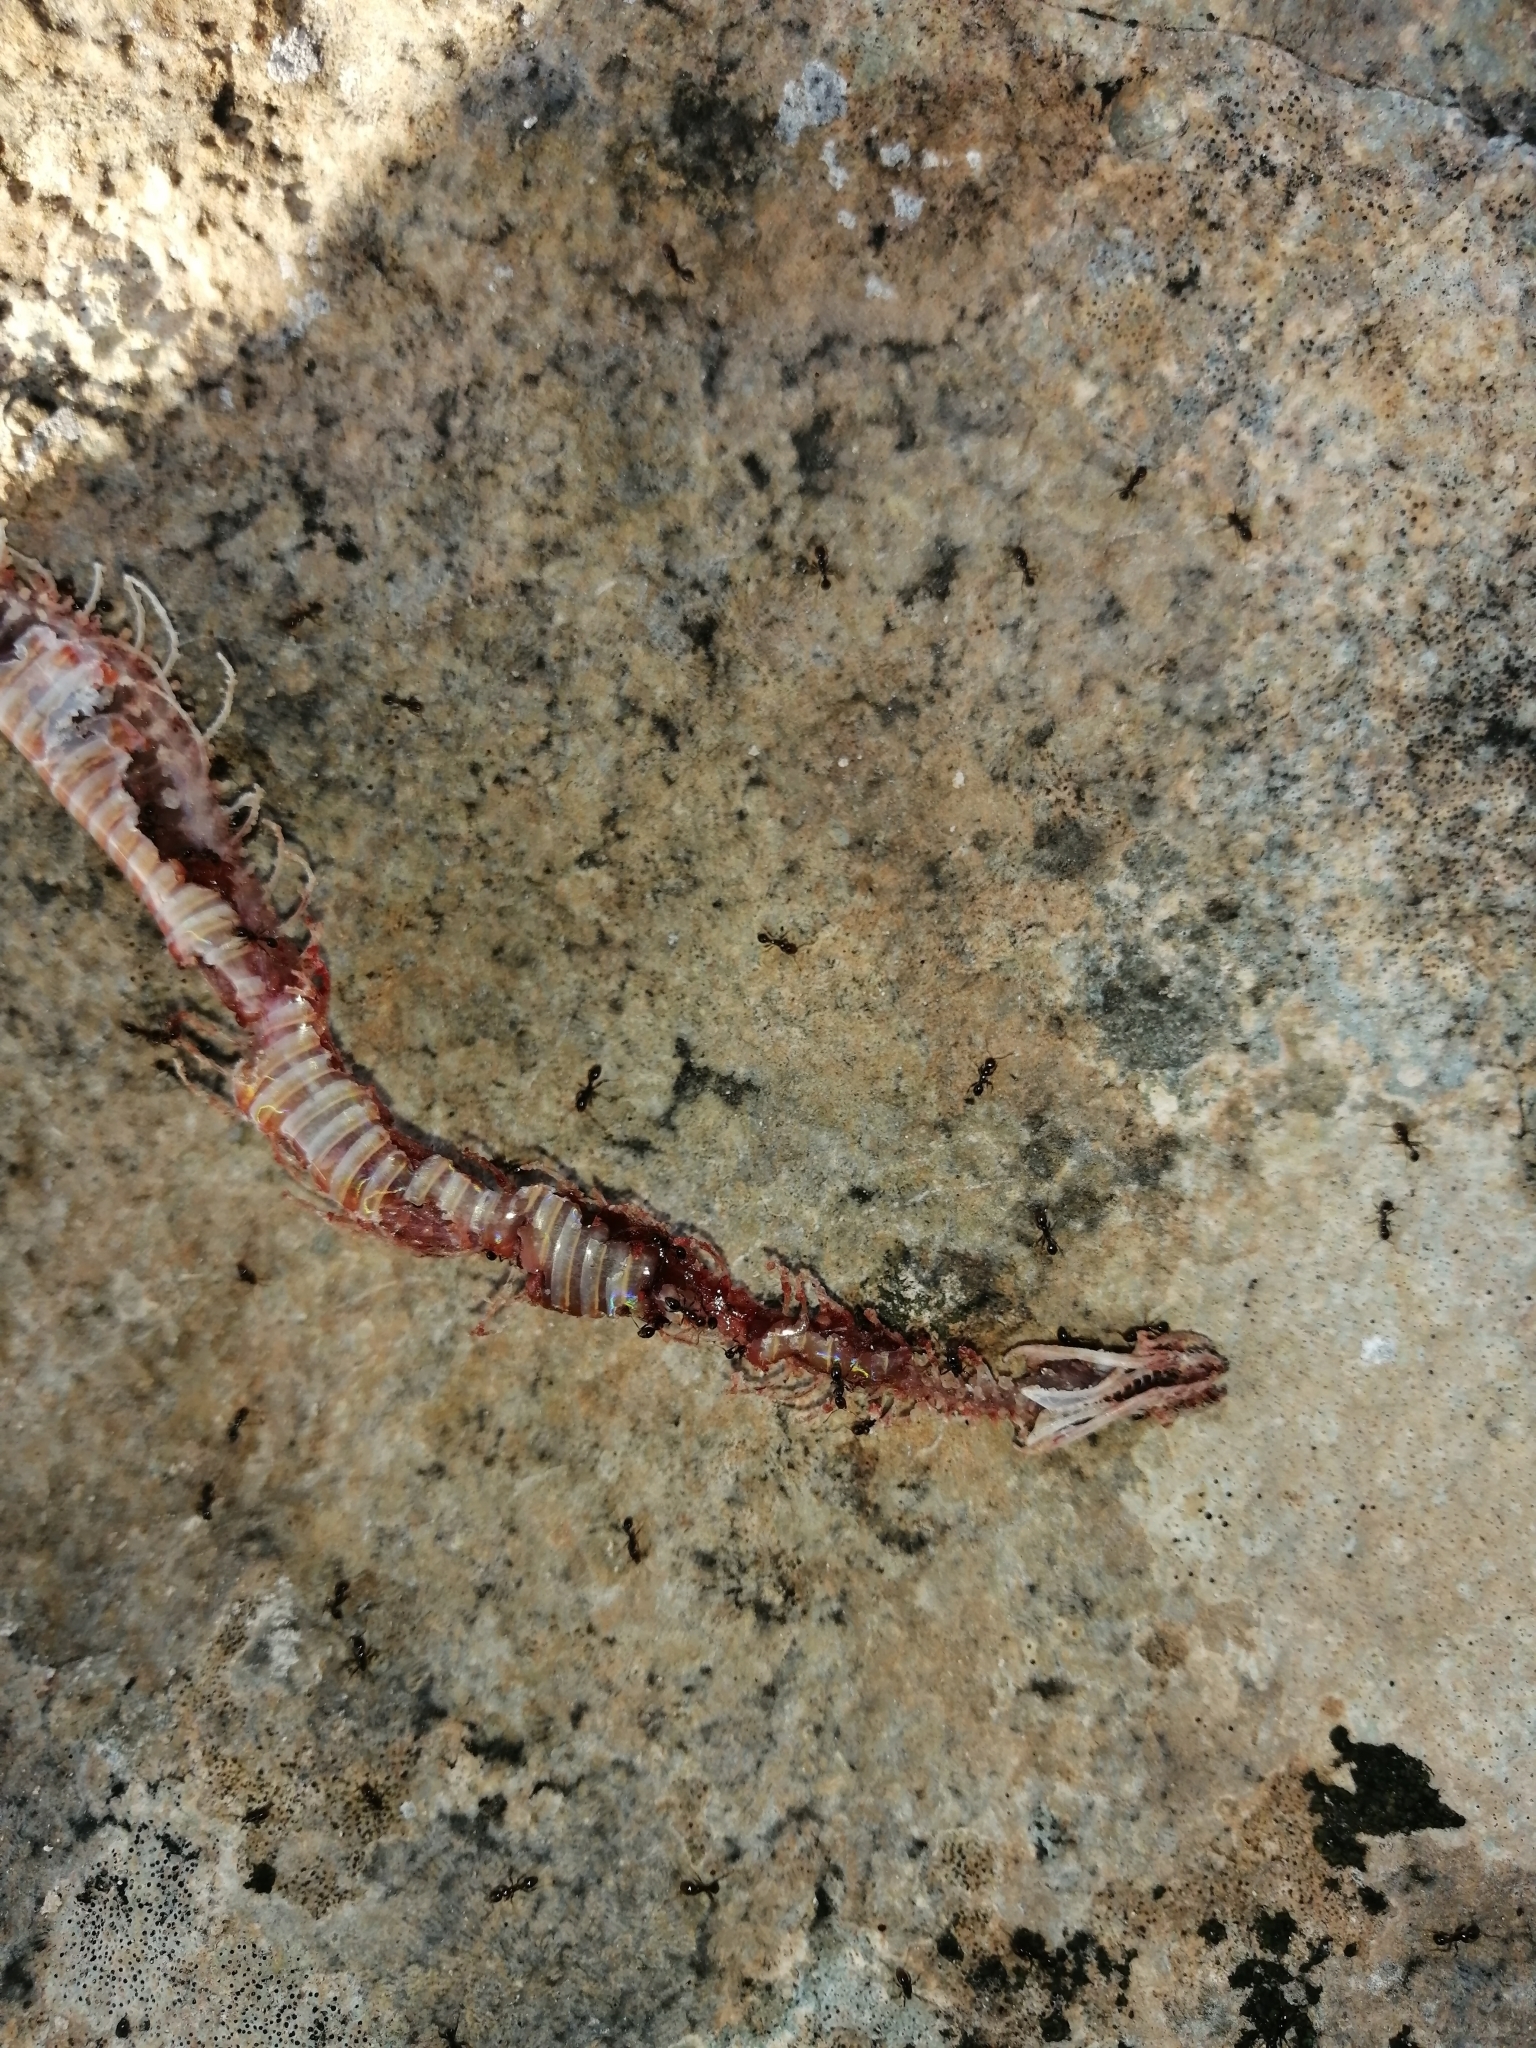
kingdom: Animalia
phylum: Chordata
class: Squamata
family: Colubridae
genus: Ninia
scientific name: Ninia sebae
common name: Redback coffee snake
